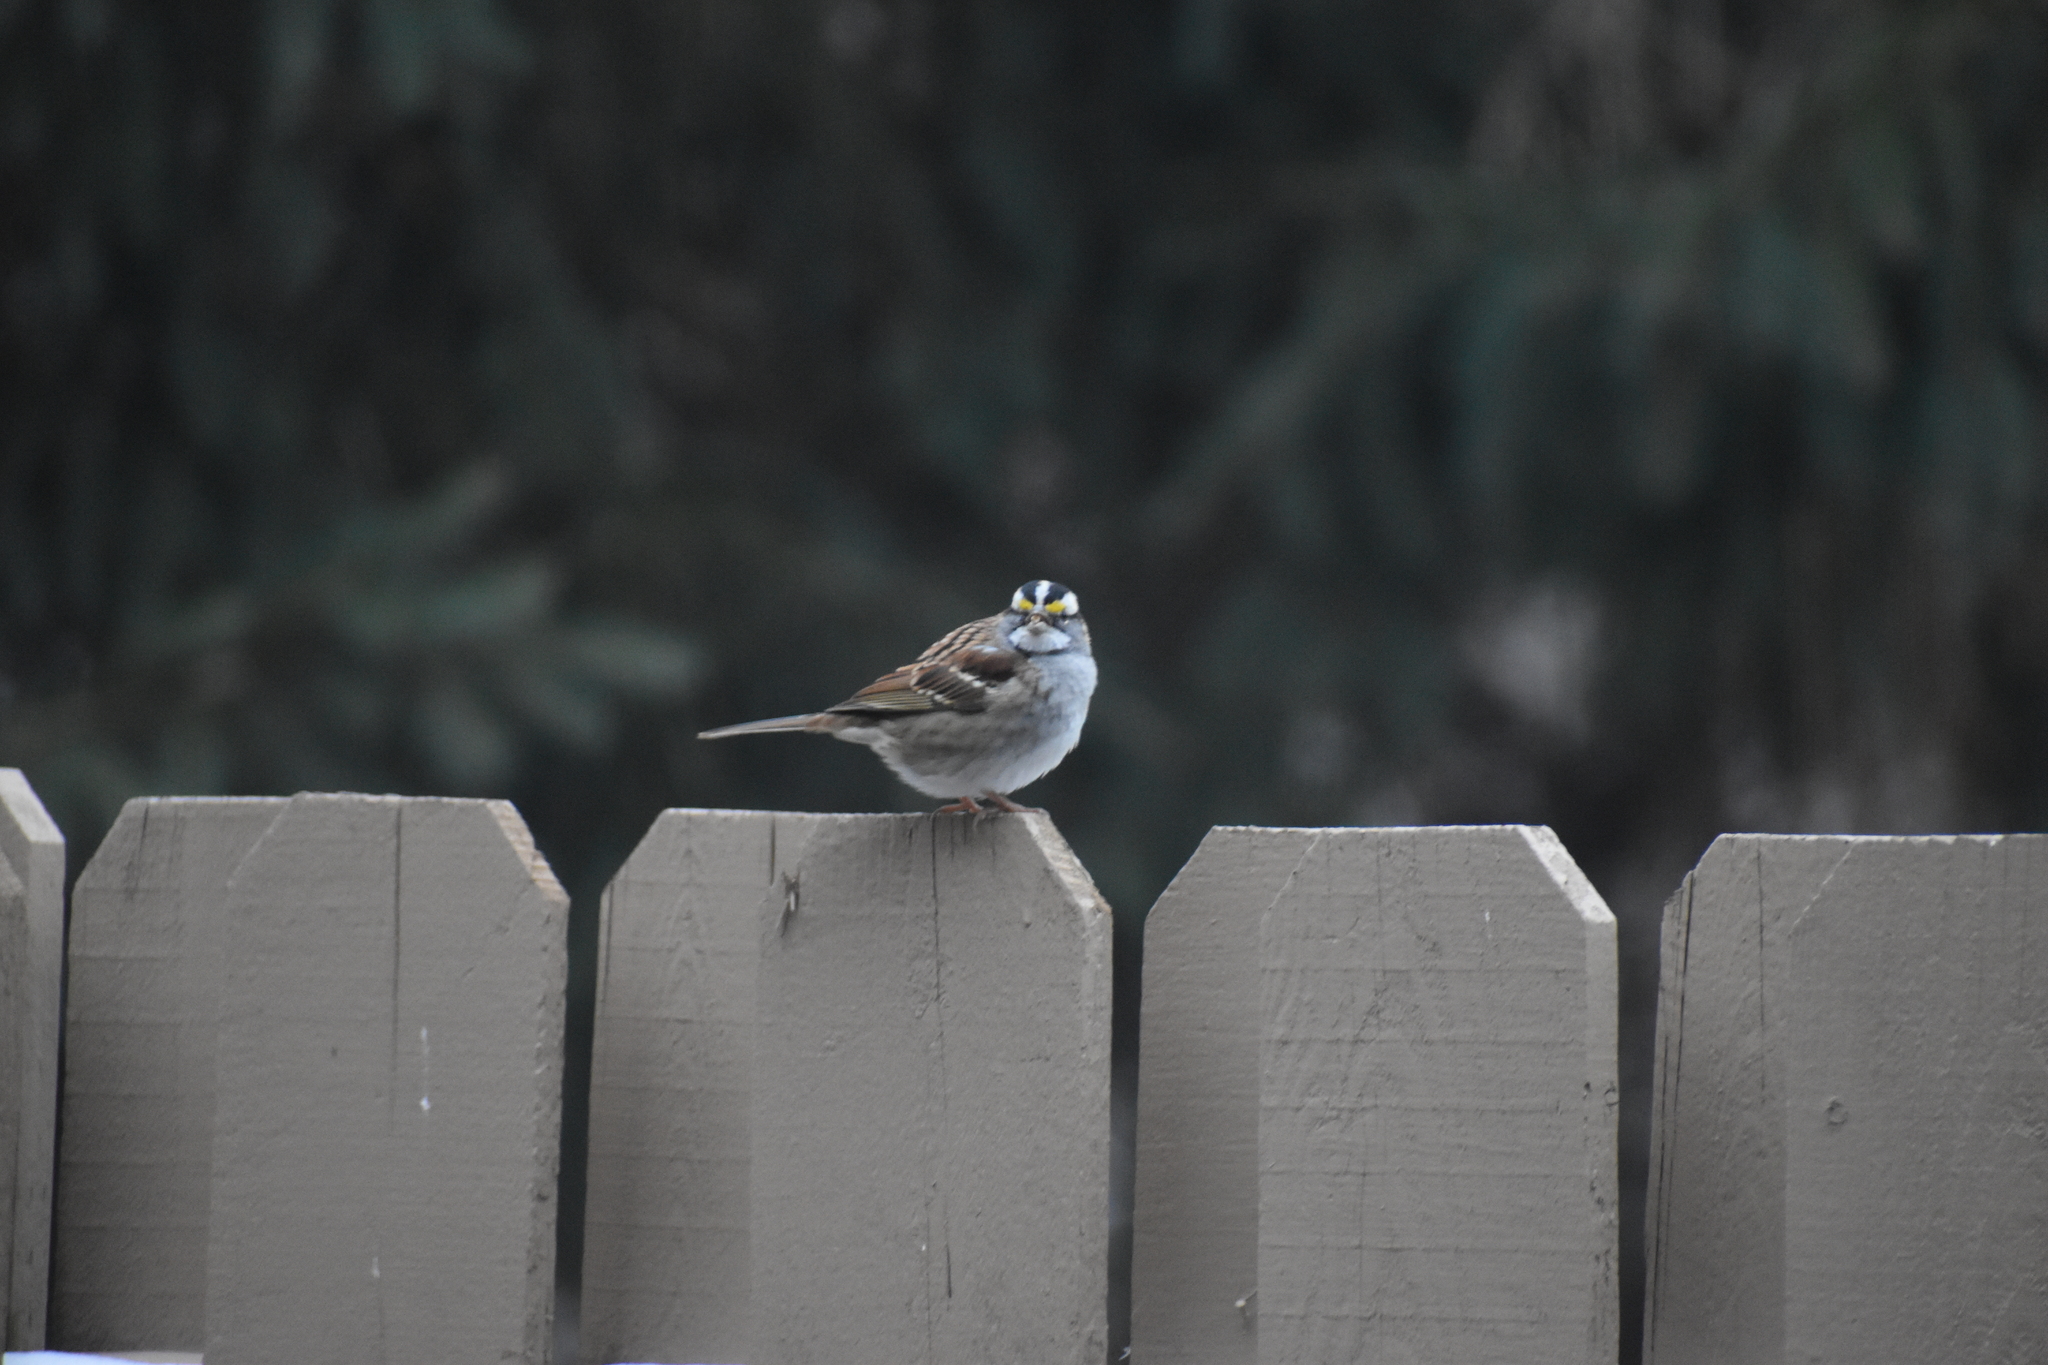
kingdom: Animalia
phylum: Chordata
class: Aves
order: Passeriformes
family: Passerellidae
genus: Zonotrichia
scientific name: Zonotrichia albicollis
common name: White-throated sparrow
